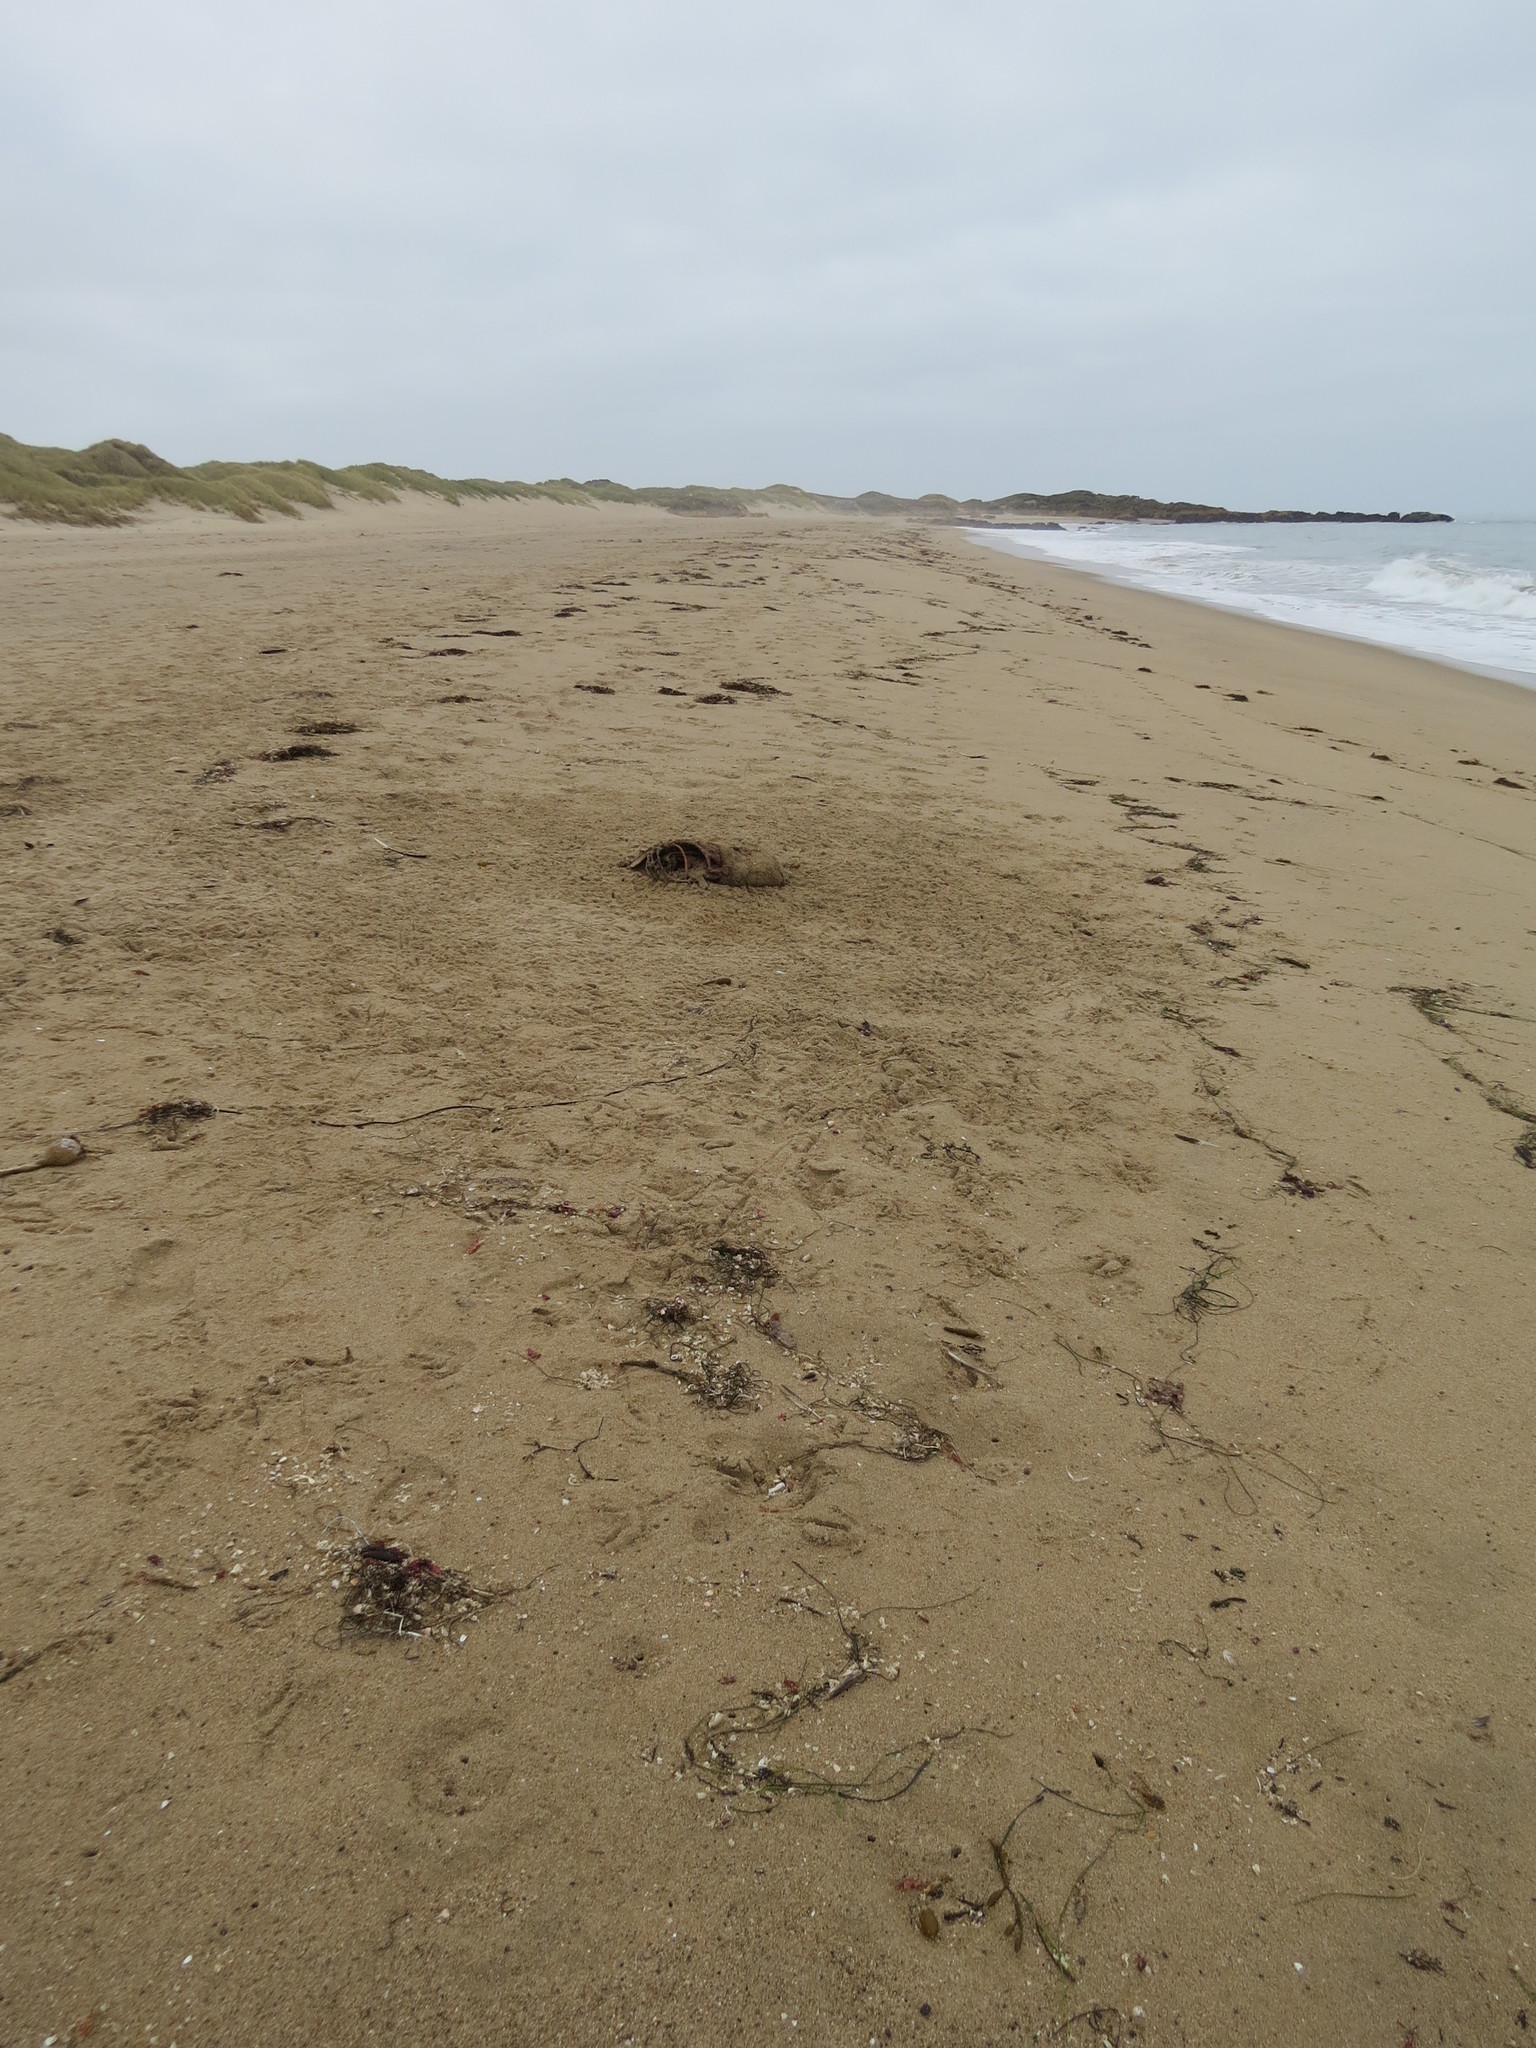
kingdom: Animalia
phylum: Chordata
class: Aves
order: Accipitriformes
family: Cathartidae
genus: Cathartes
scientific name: Cathartes aura
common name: Turkey vulture
